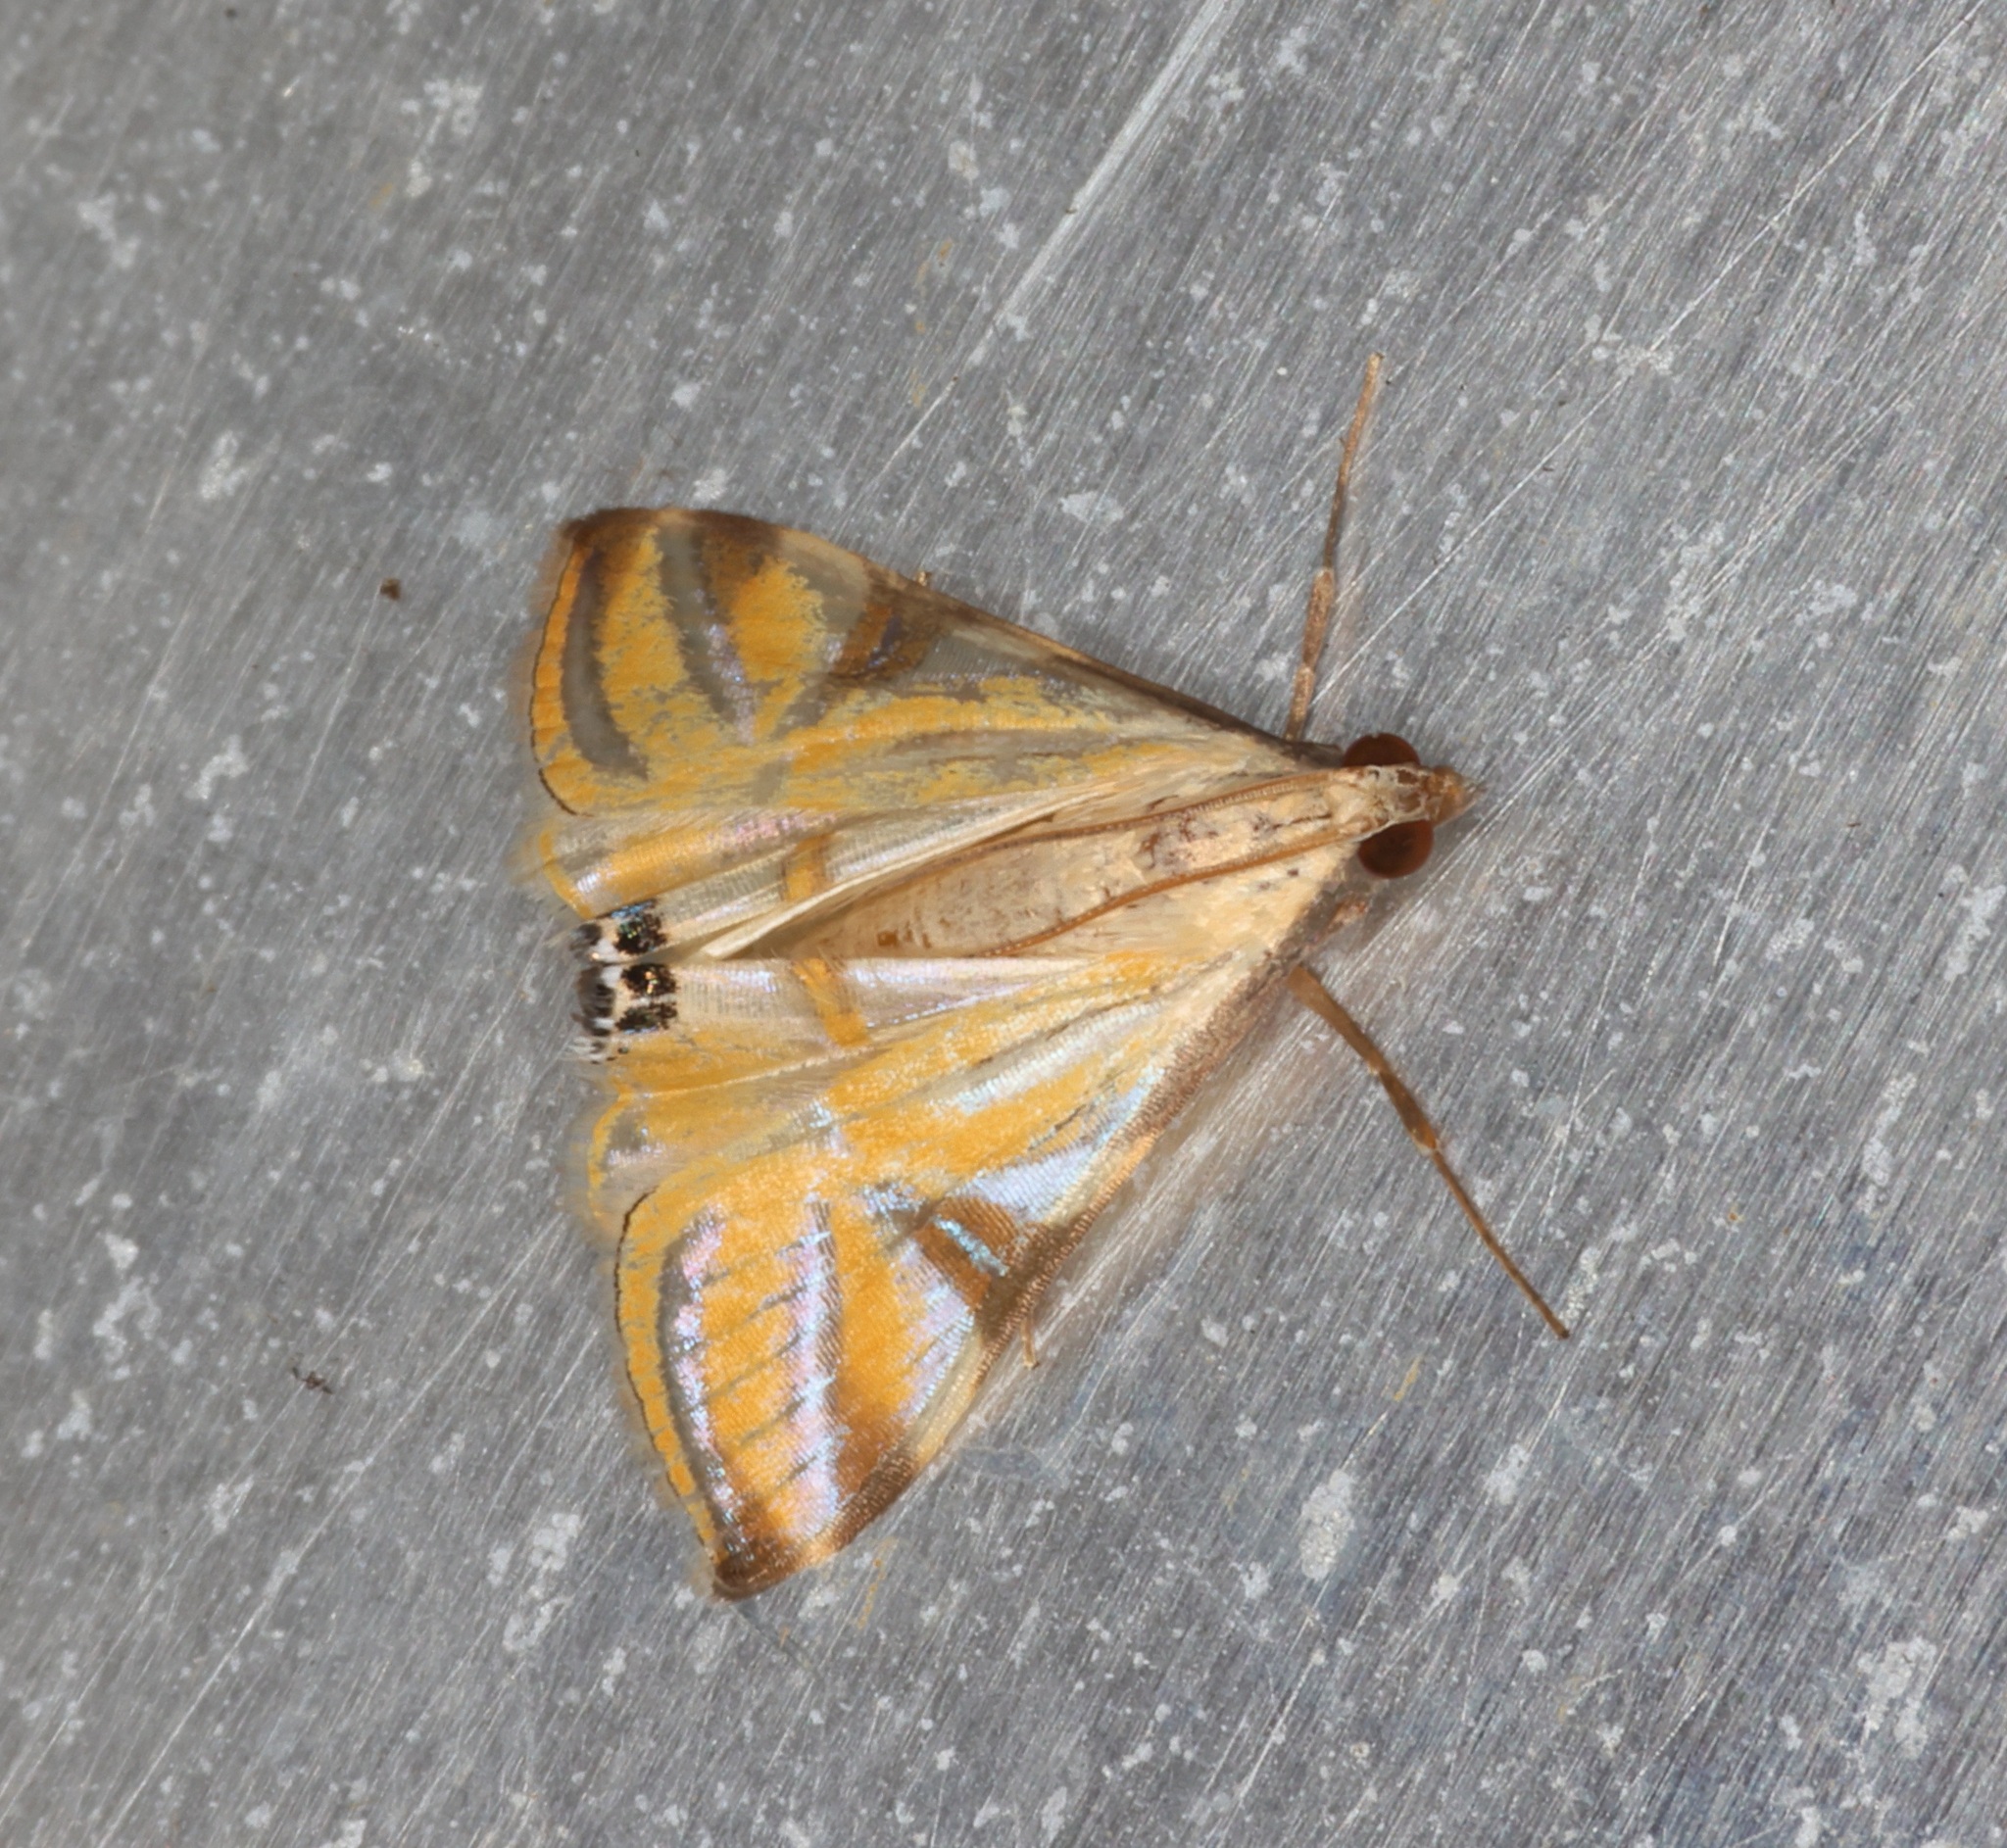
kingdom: Animalia
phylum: Arthropoda
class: Insecta
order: Lepidoptera
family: Crambidae
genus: Talanga
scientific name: Talanga sexpunctalis
